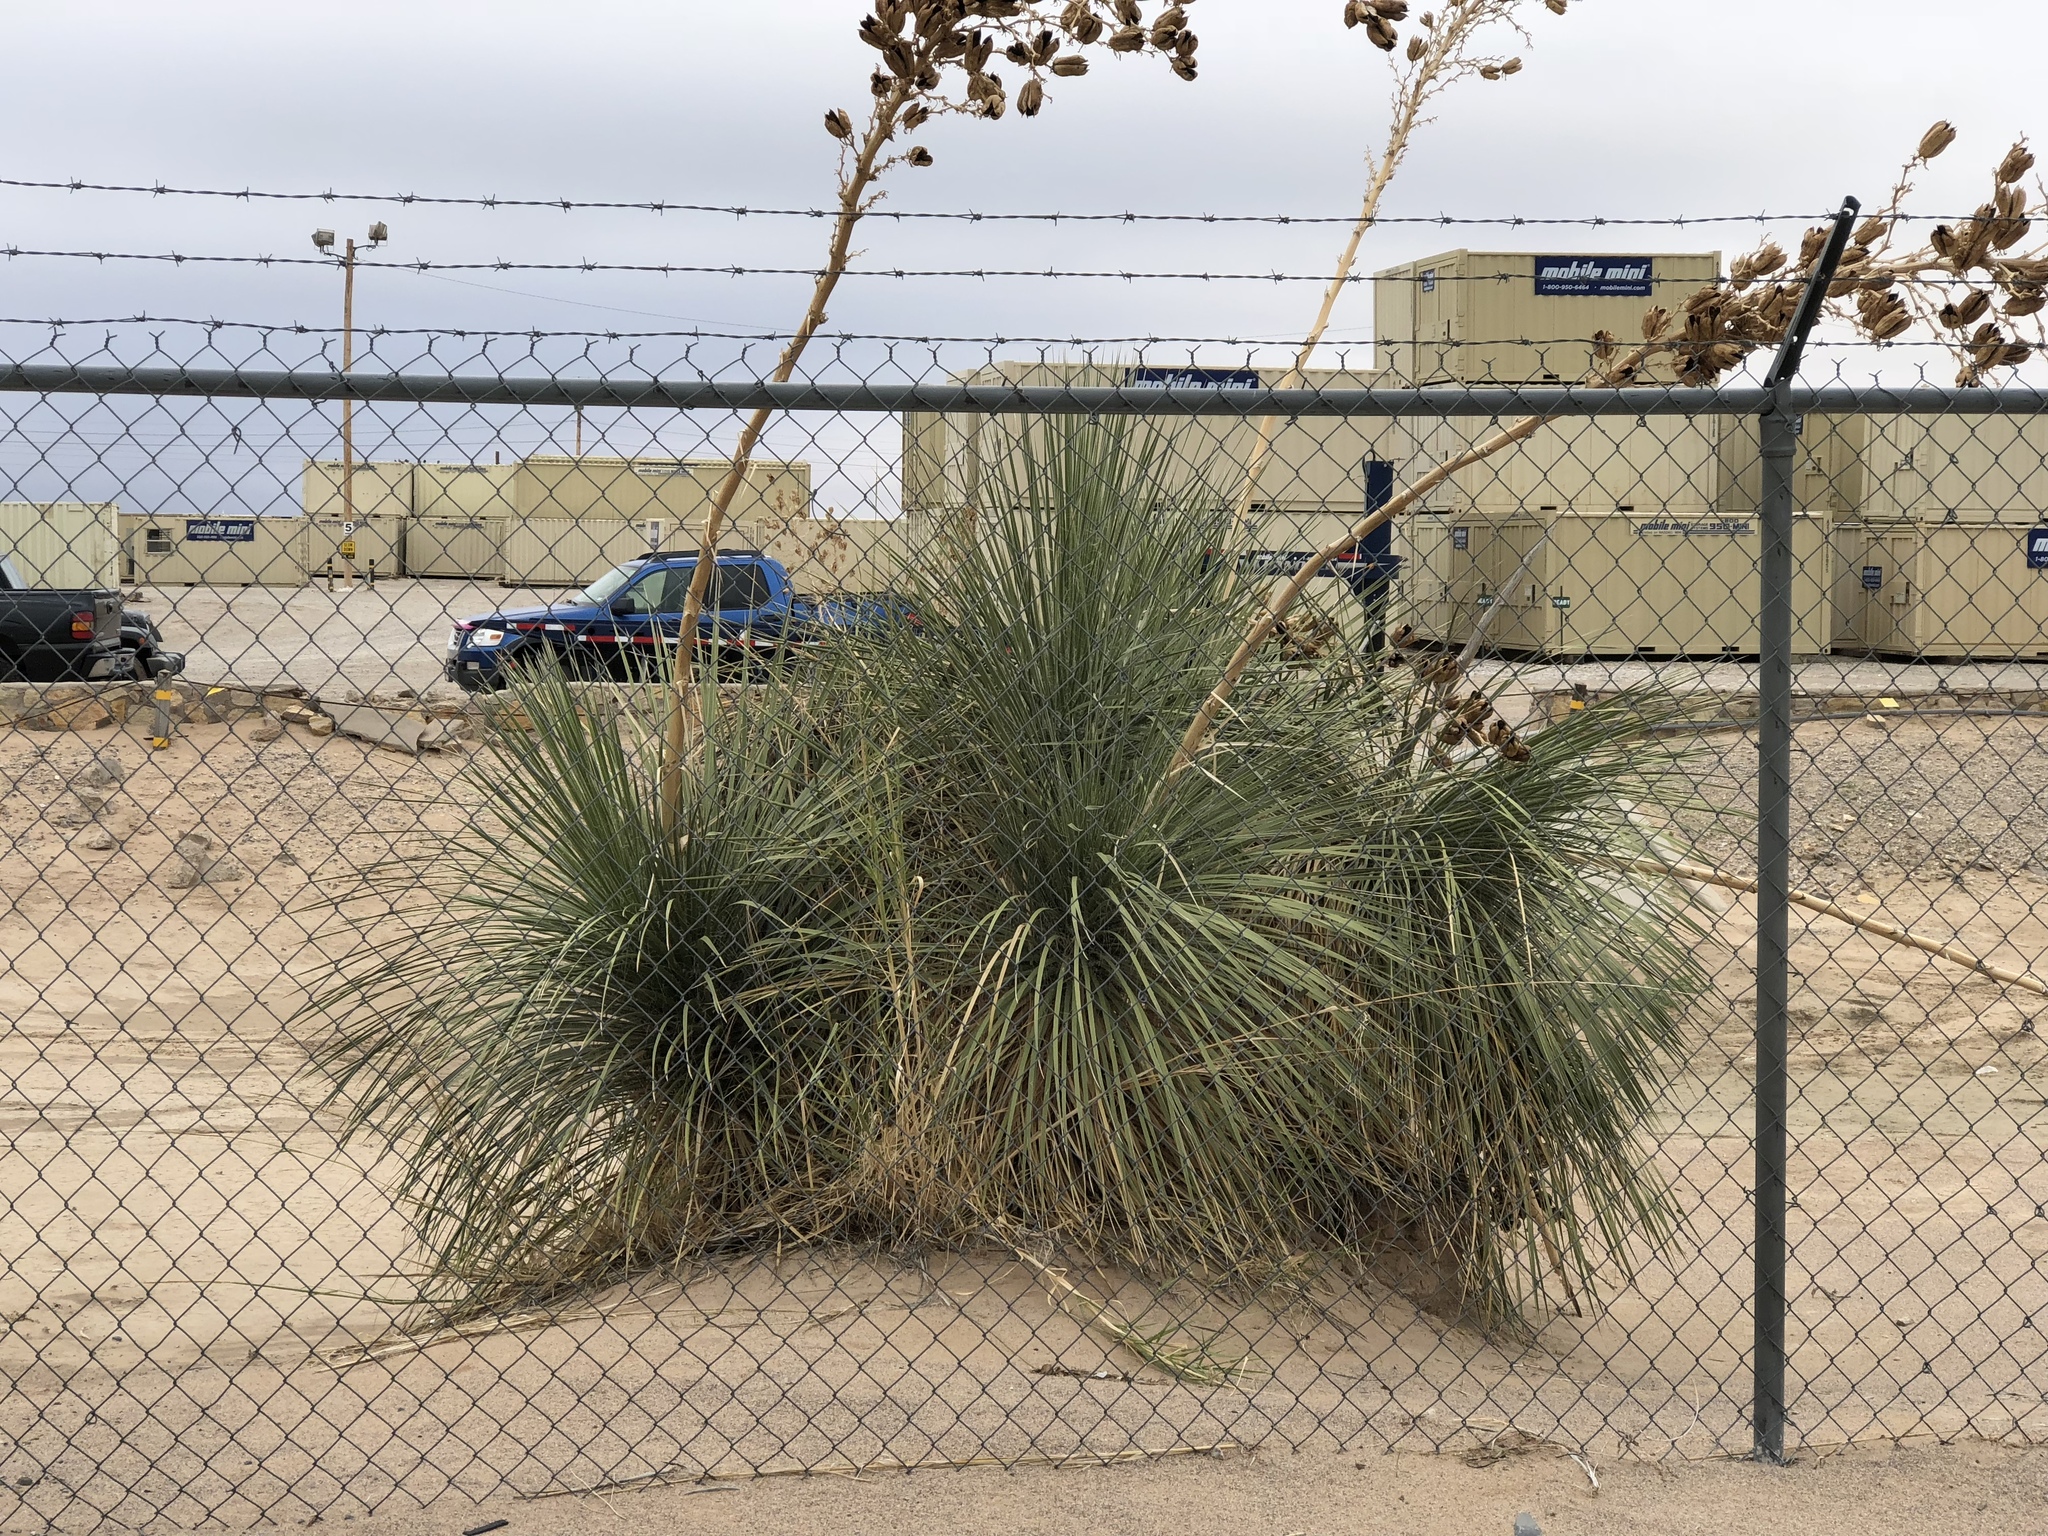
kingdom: Plantae
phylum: Tracheophyta
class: Liliopsida
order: Asparagales
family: Asparagaceae
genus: Yucca
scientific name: Yucca elata
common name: Palmella
